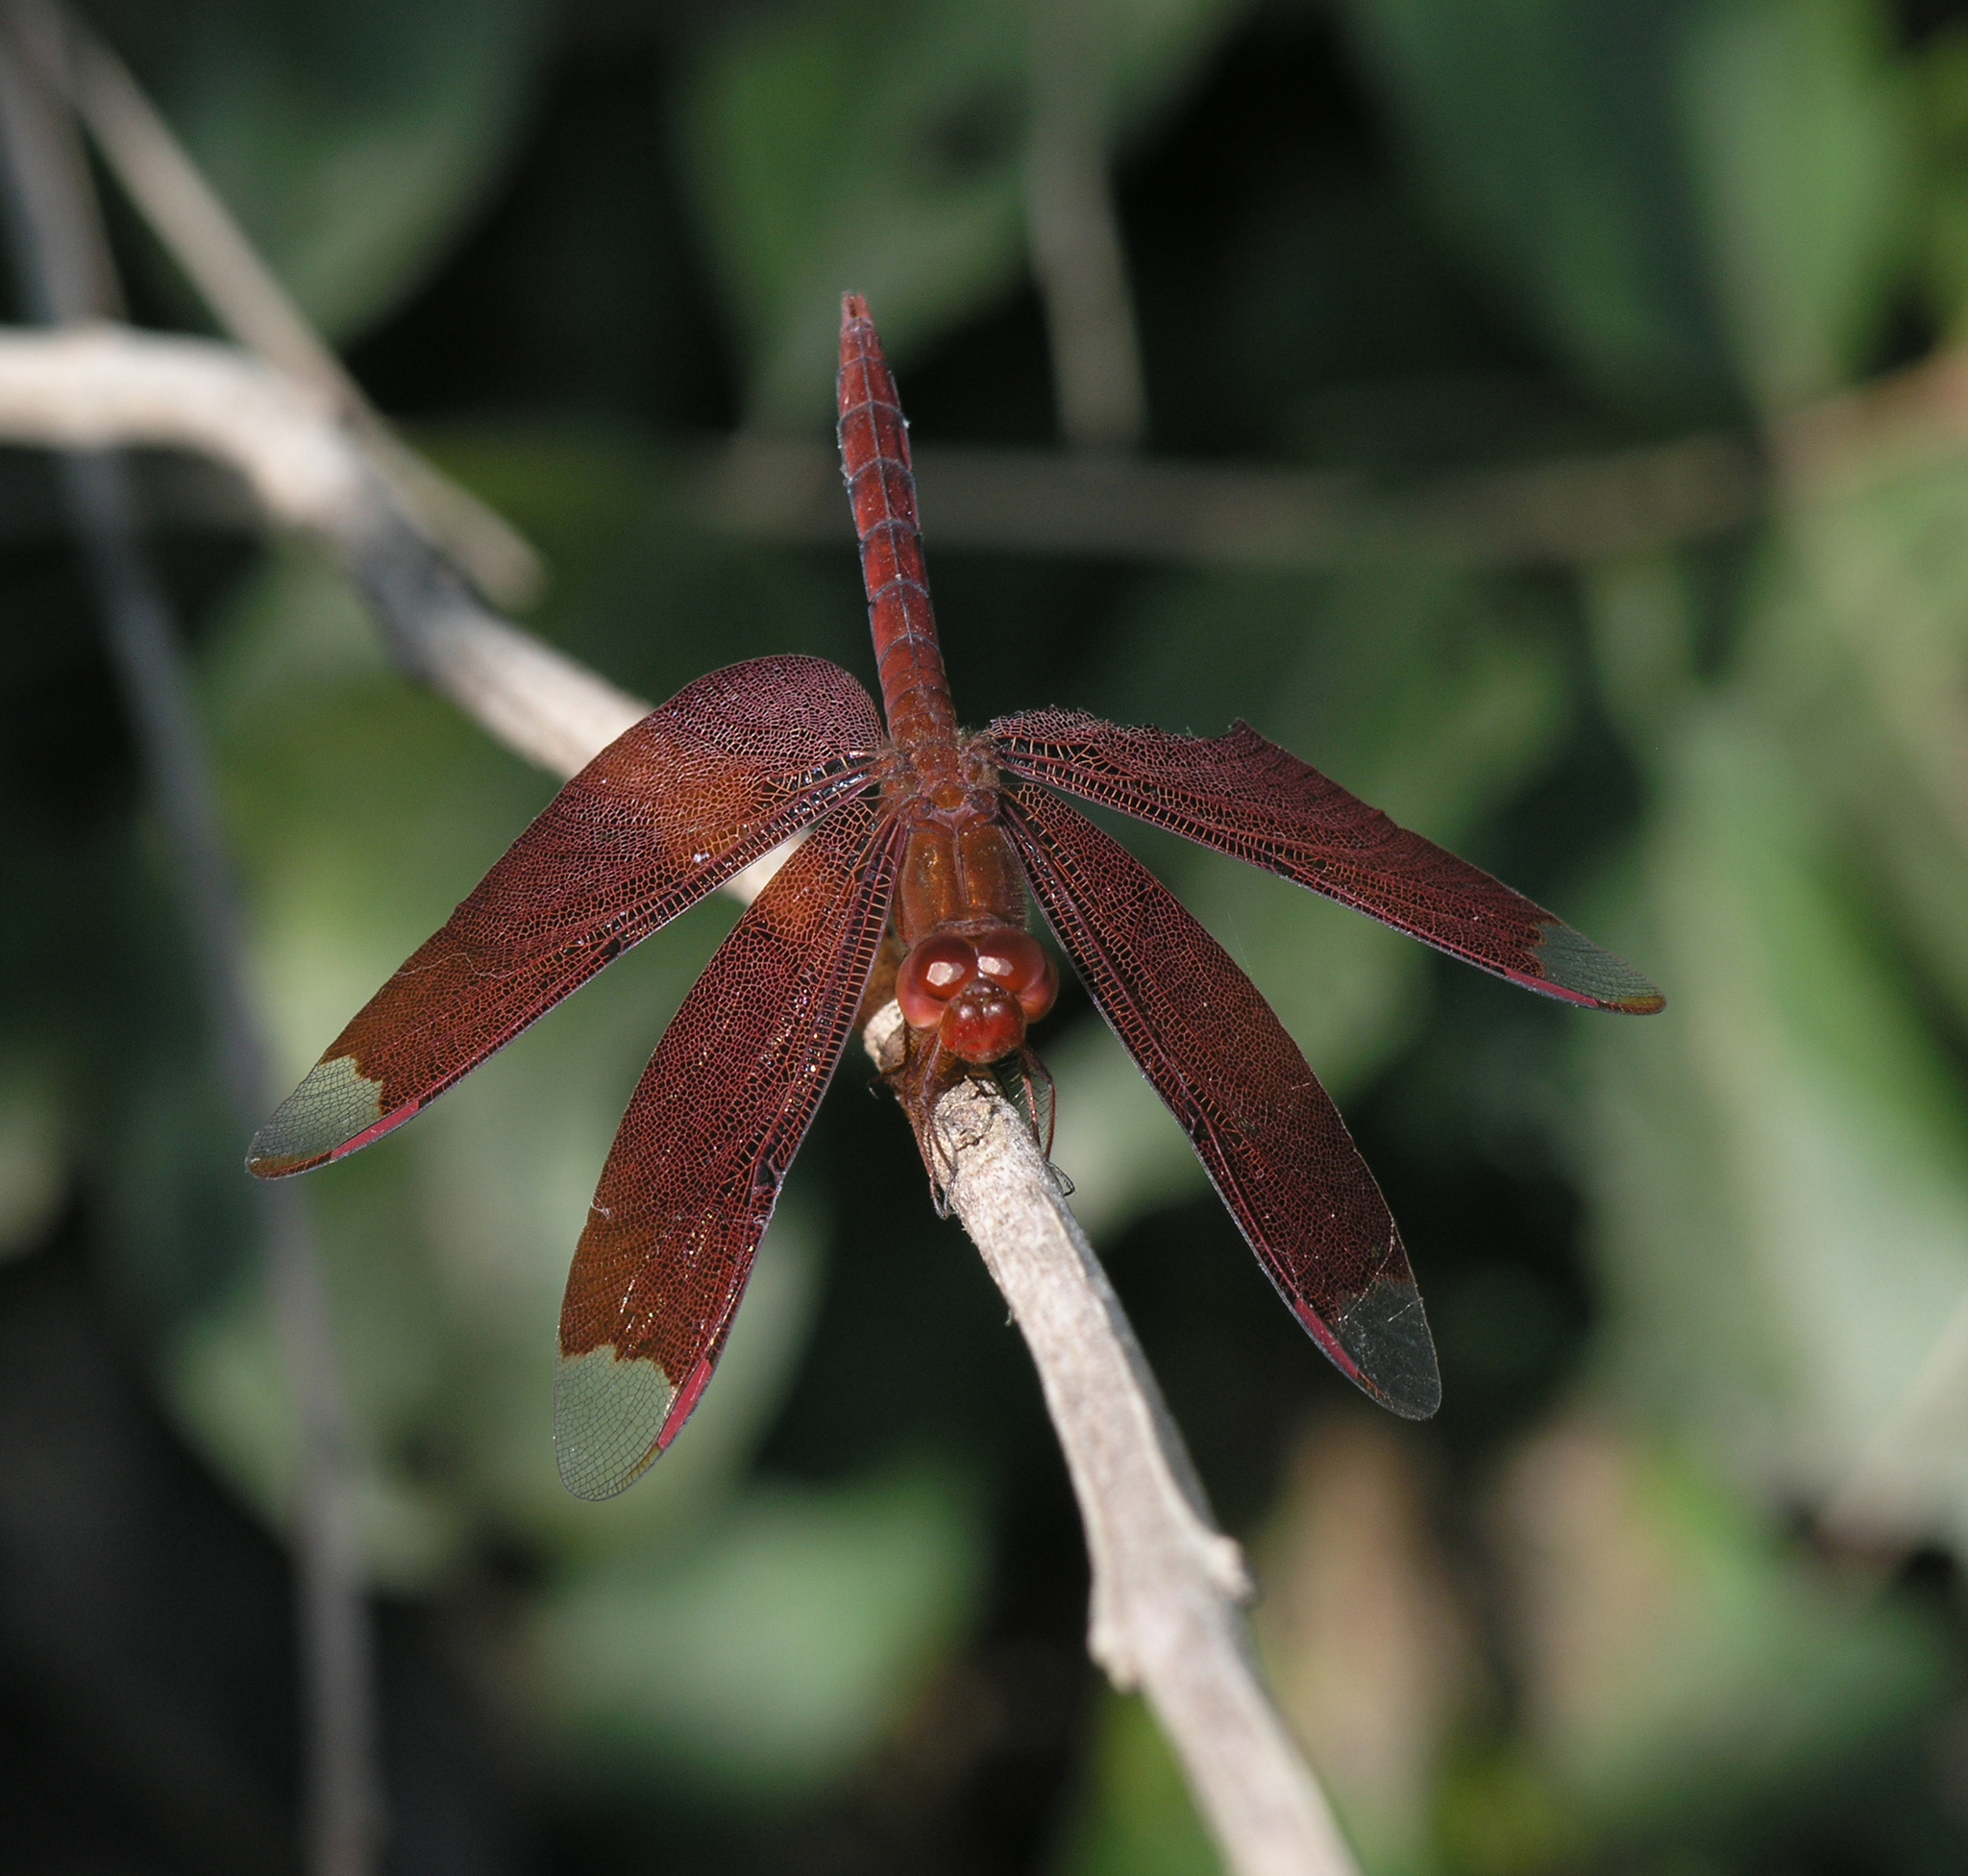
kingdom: Animalia
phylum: Arthropoda
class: Insecta
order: Odonata
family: Libellulidae
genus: Neurothemis
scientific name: Neurothemis fulvia
